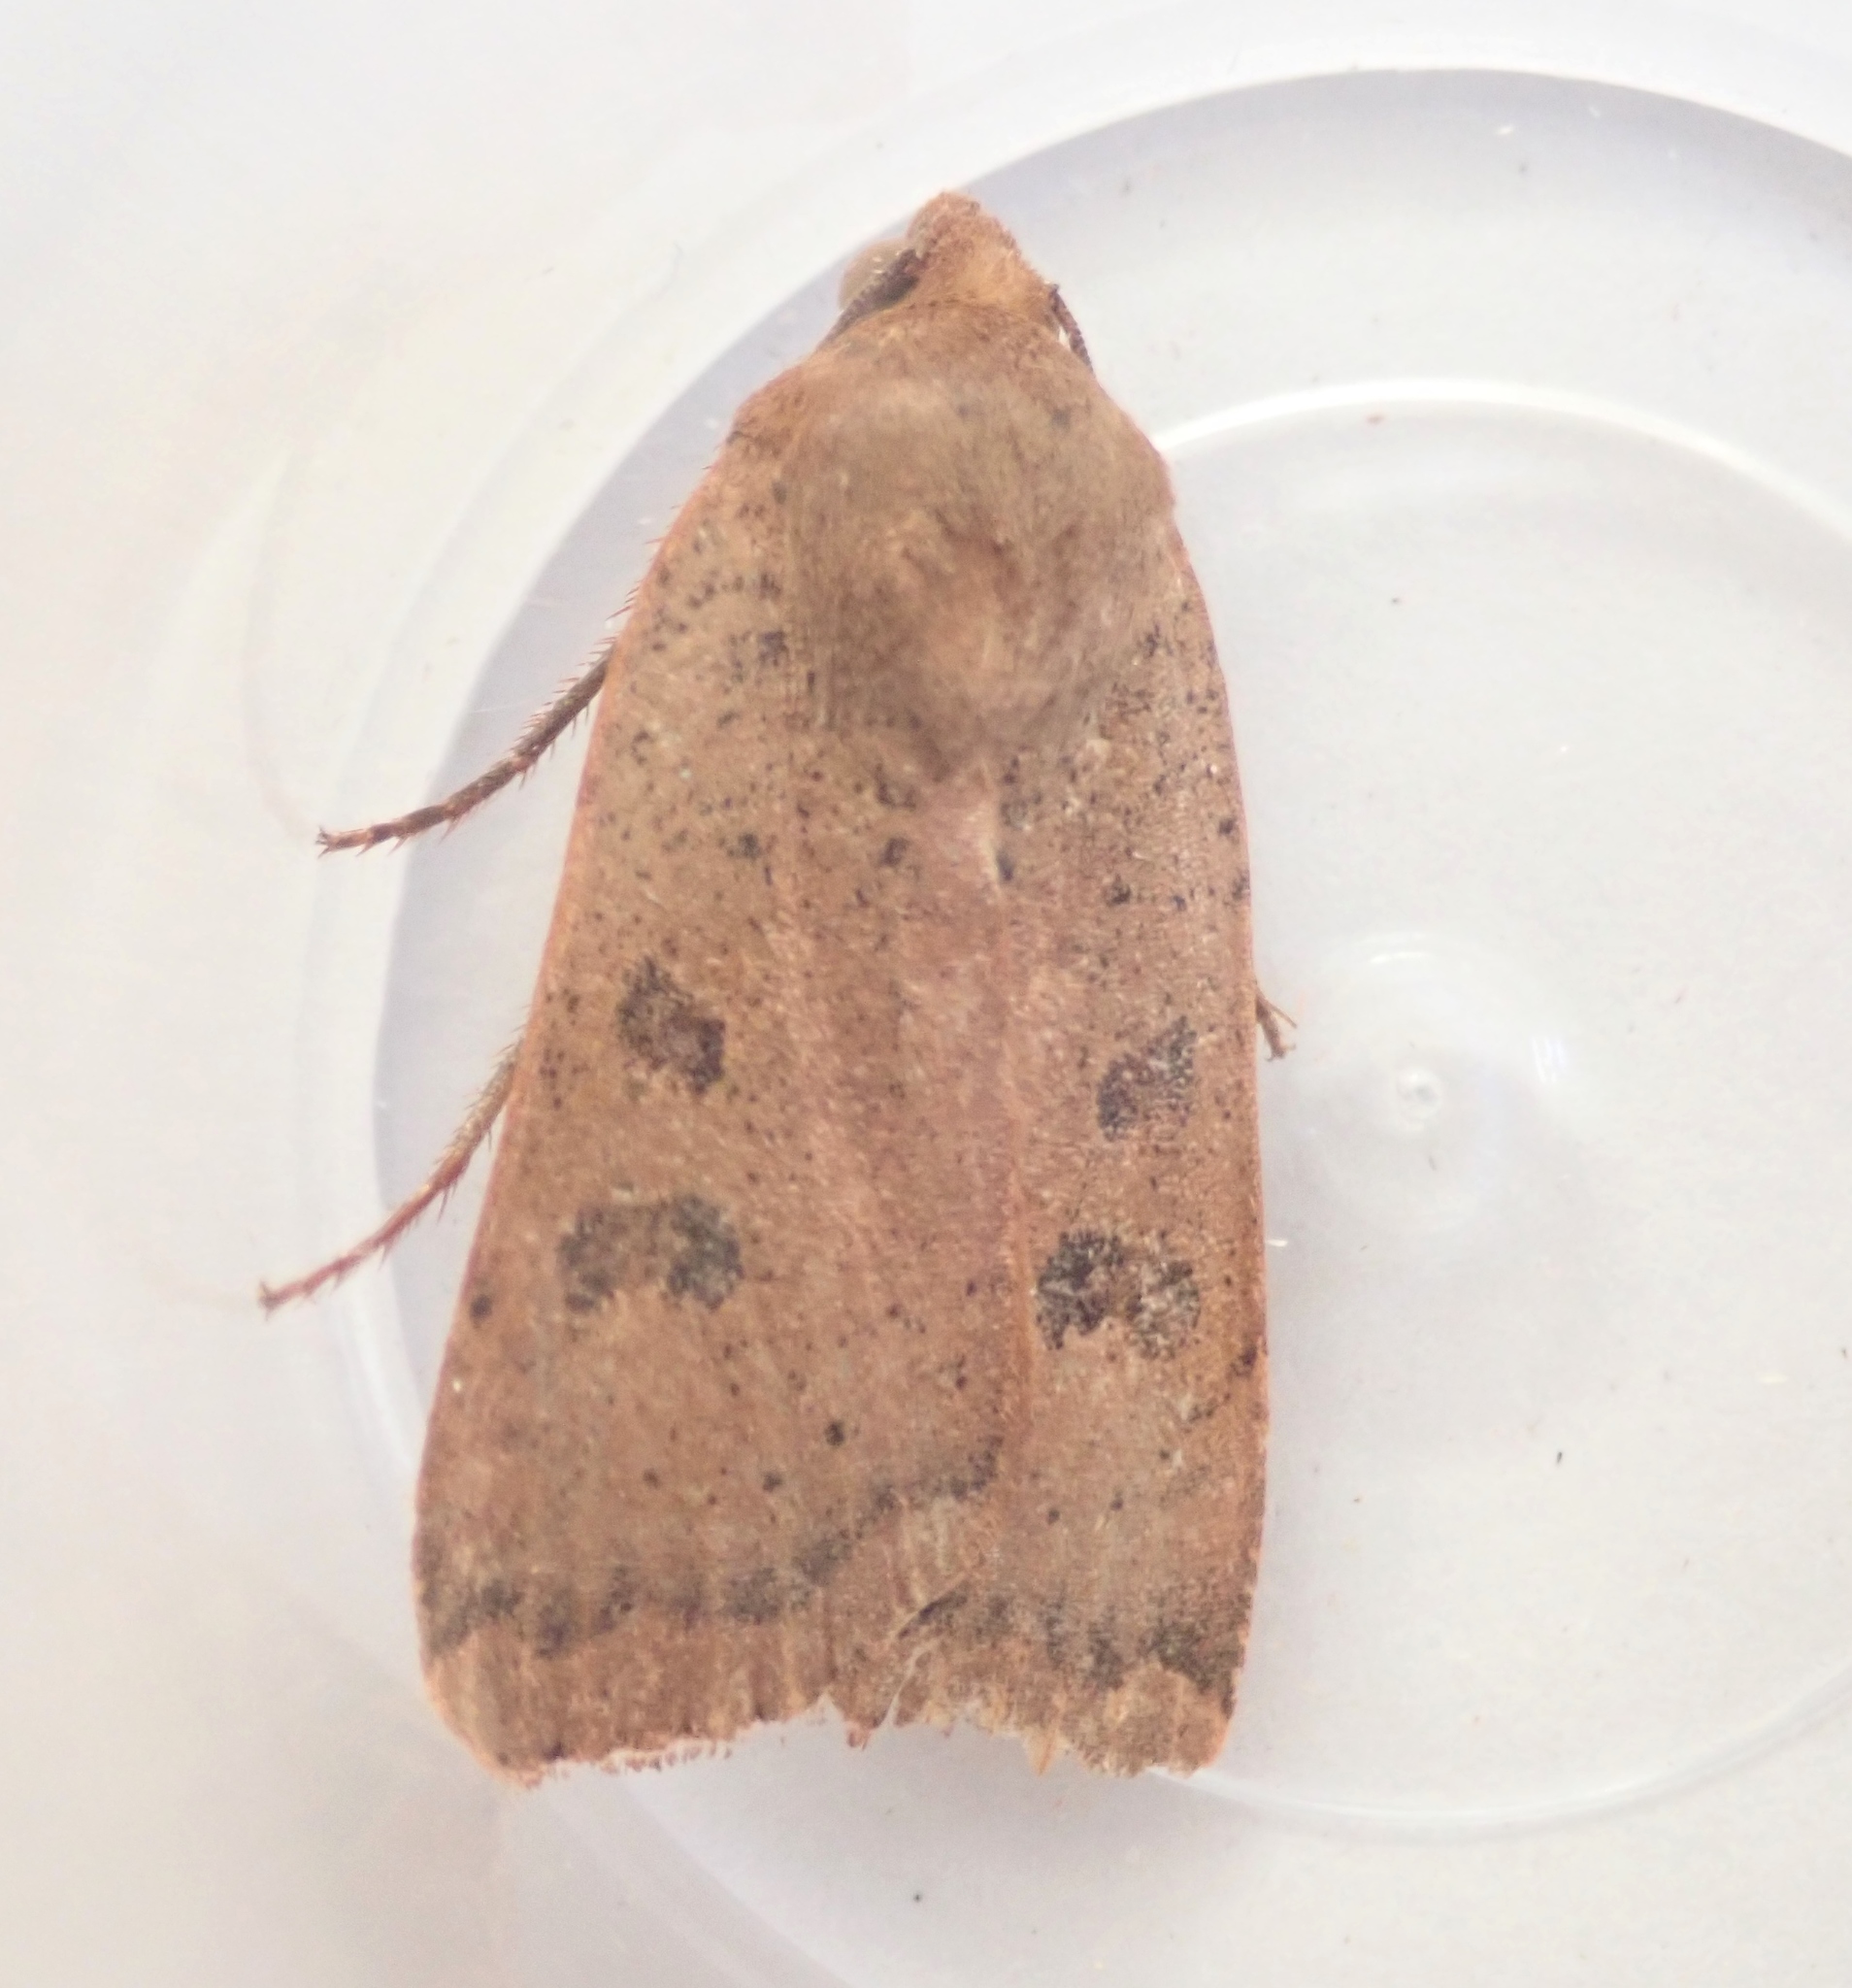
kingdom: Animalia
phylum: Arthropoda
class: Insecta
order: Lepidoptera
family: Noctuidae
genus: Noctua
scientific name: Noctua comes
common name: Lesser yellow underwing
